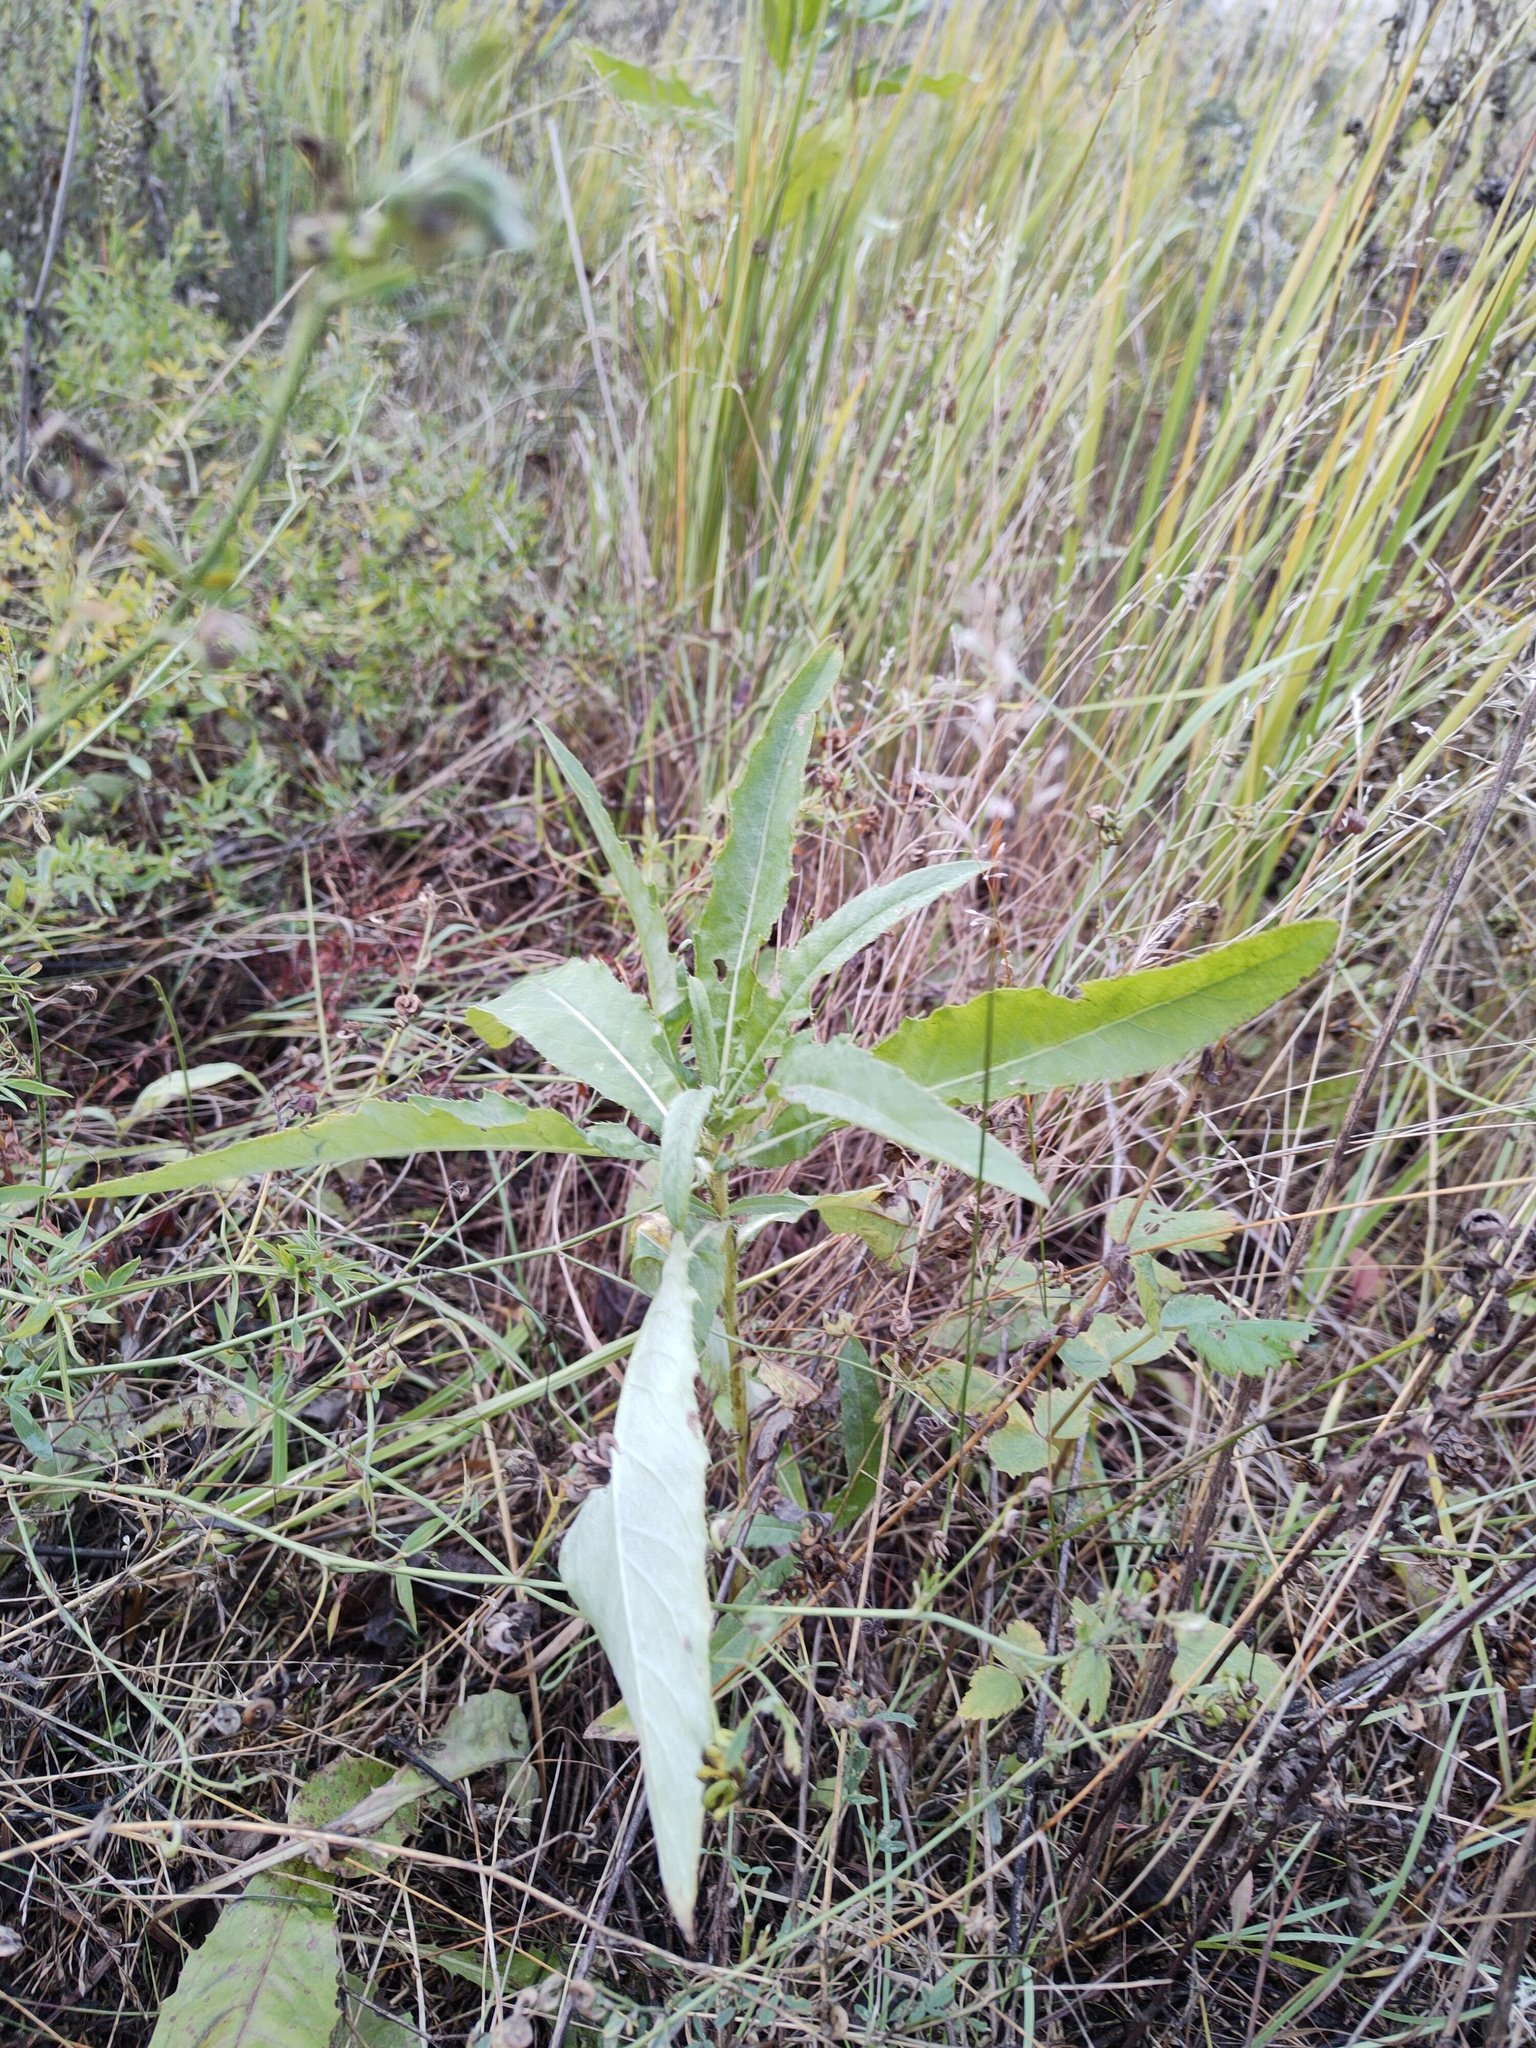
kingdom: Plantae
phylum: Tracheophyta
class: Magnoliopsida
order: Asterales
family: Asteraceae
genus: Cirsium
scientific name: Cirsium arvense
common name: Creeping thistle
